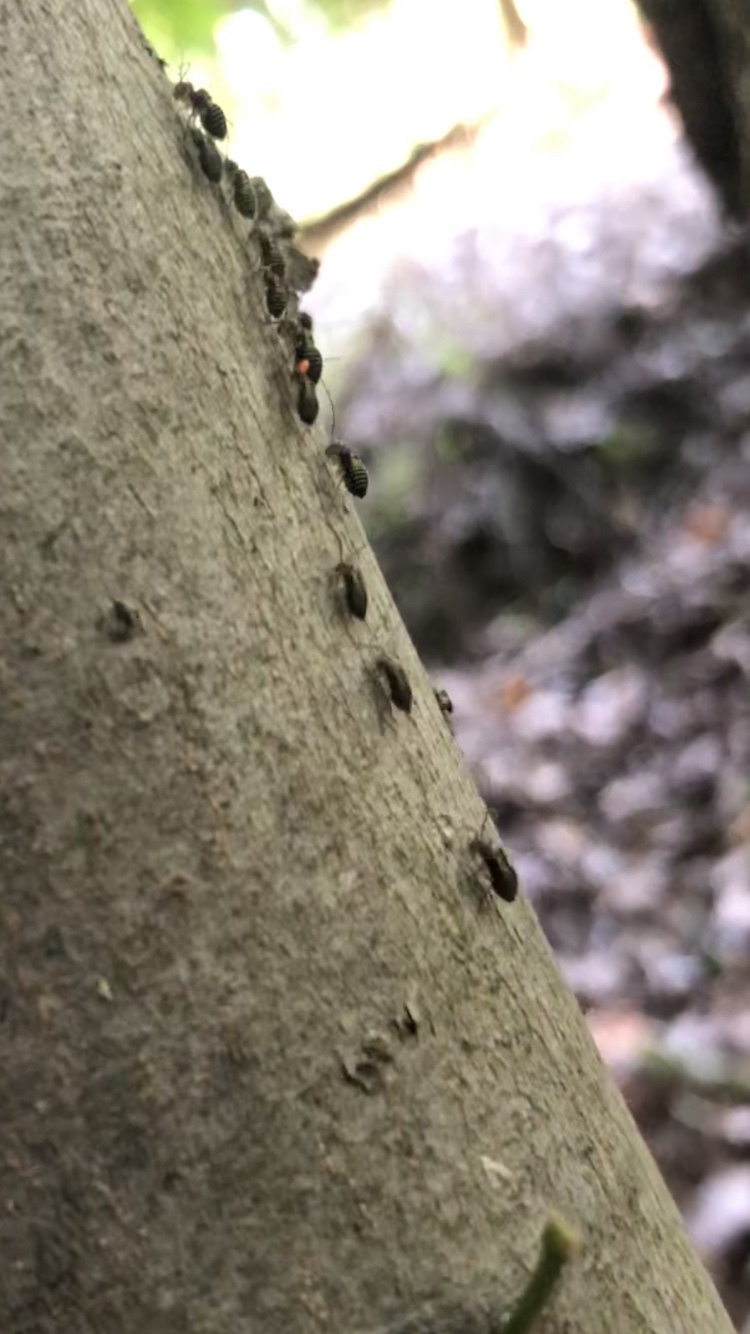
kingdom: Animalia
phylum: Arthropoda
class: Insecta
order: Psocodea
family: Psocidae
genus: Cerastipsocus
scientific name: Cerastipsocus venosus
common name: Tree cattle
